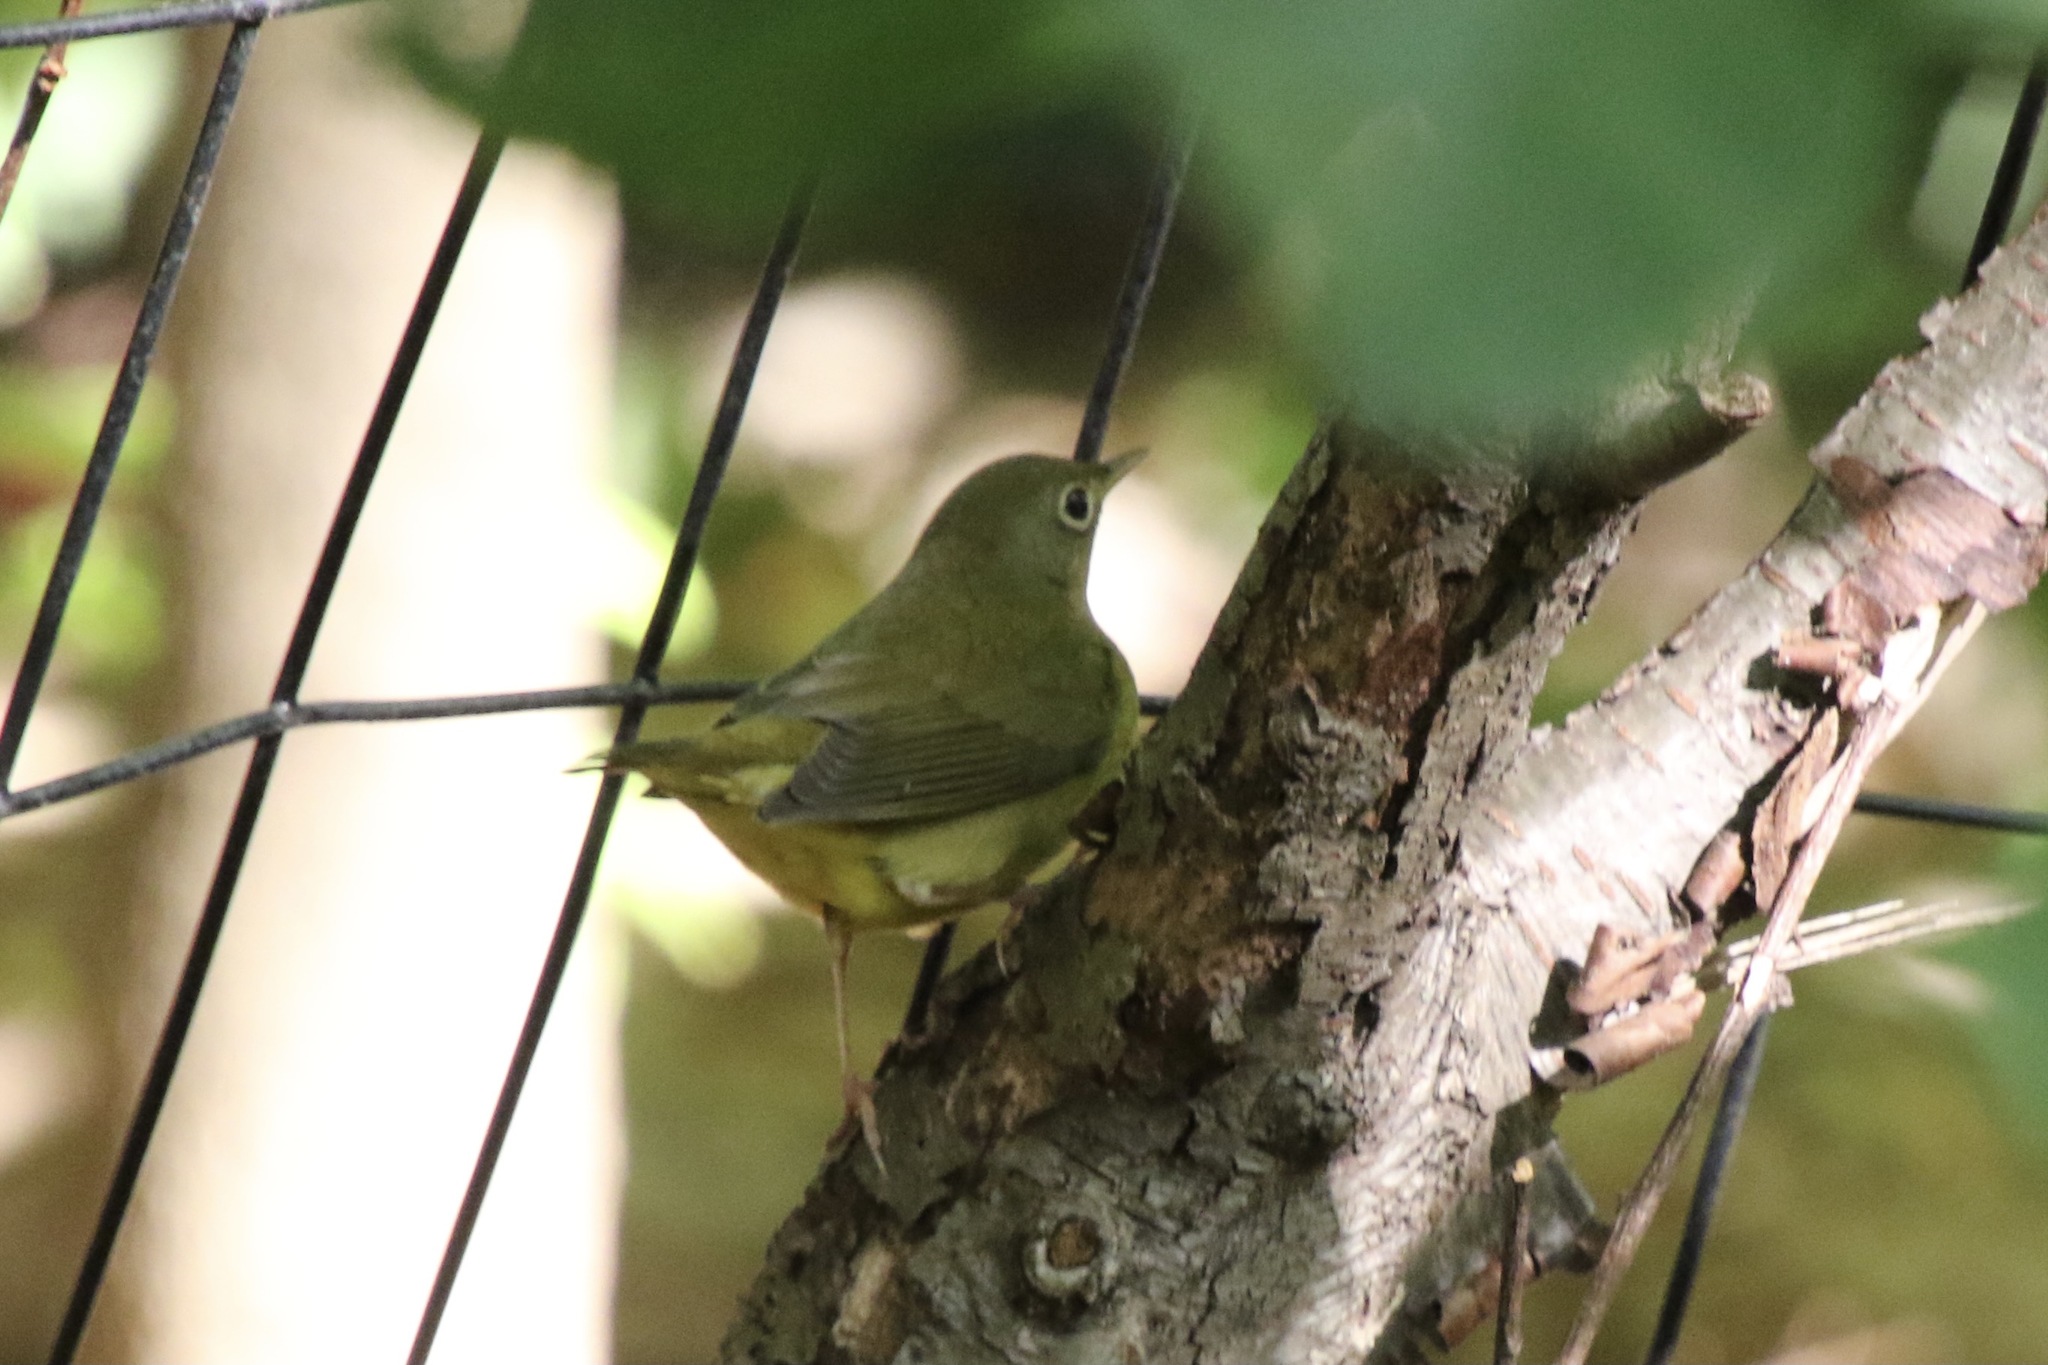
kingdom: Animalia
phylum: Chordata
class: Aves
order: Passeriformes
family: Parulidae
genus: Oporornis
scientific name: Oporornis agilis
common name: Connecticut warbler
